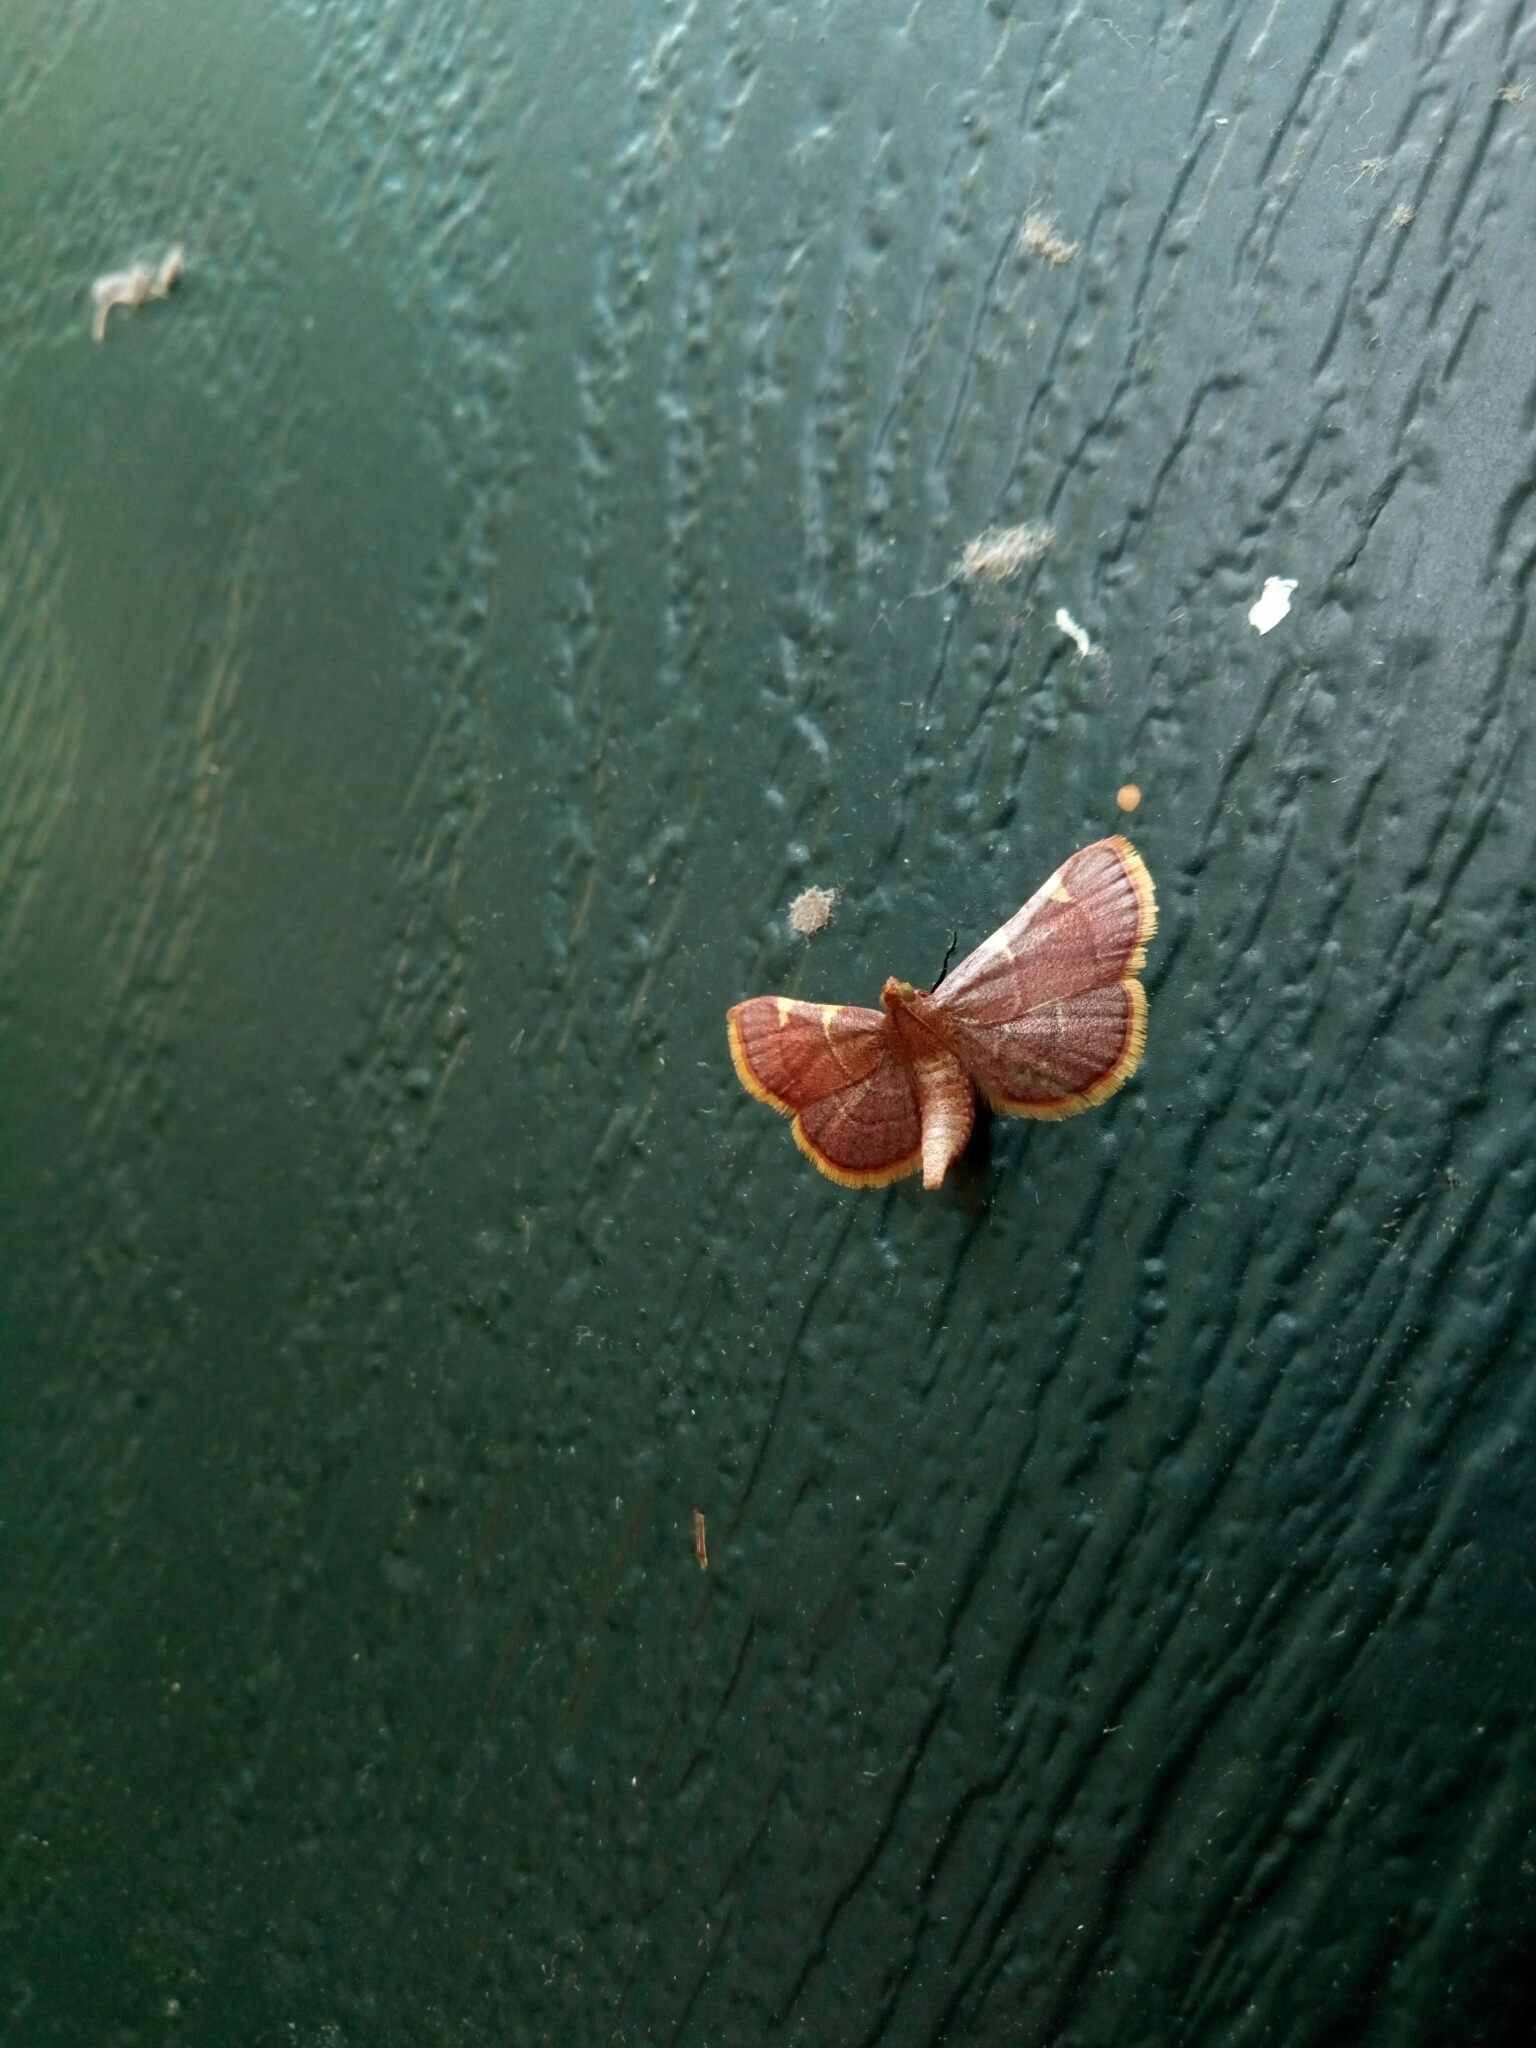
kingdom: Animalia
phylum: Arthropoda
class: Insecta
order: Lepidoptera
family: Pyralidae
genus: Hypsopygia
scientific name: Hypsopygia olinalis
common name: Yellow-fringed dolichomia moth
